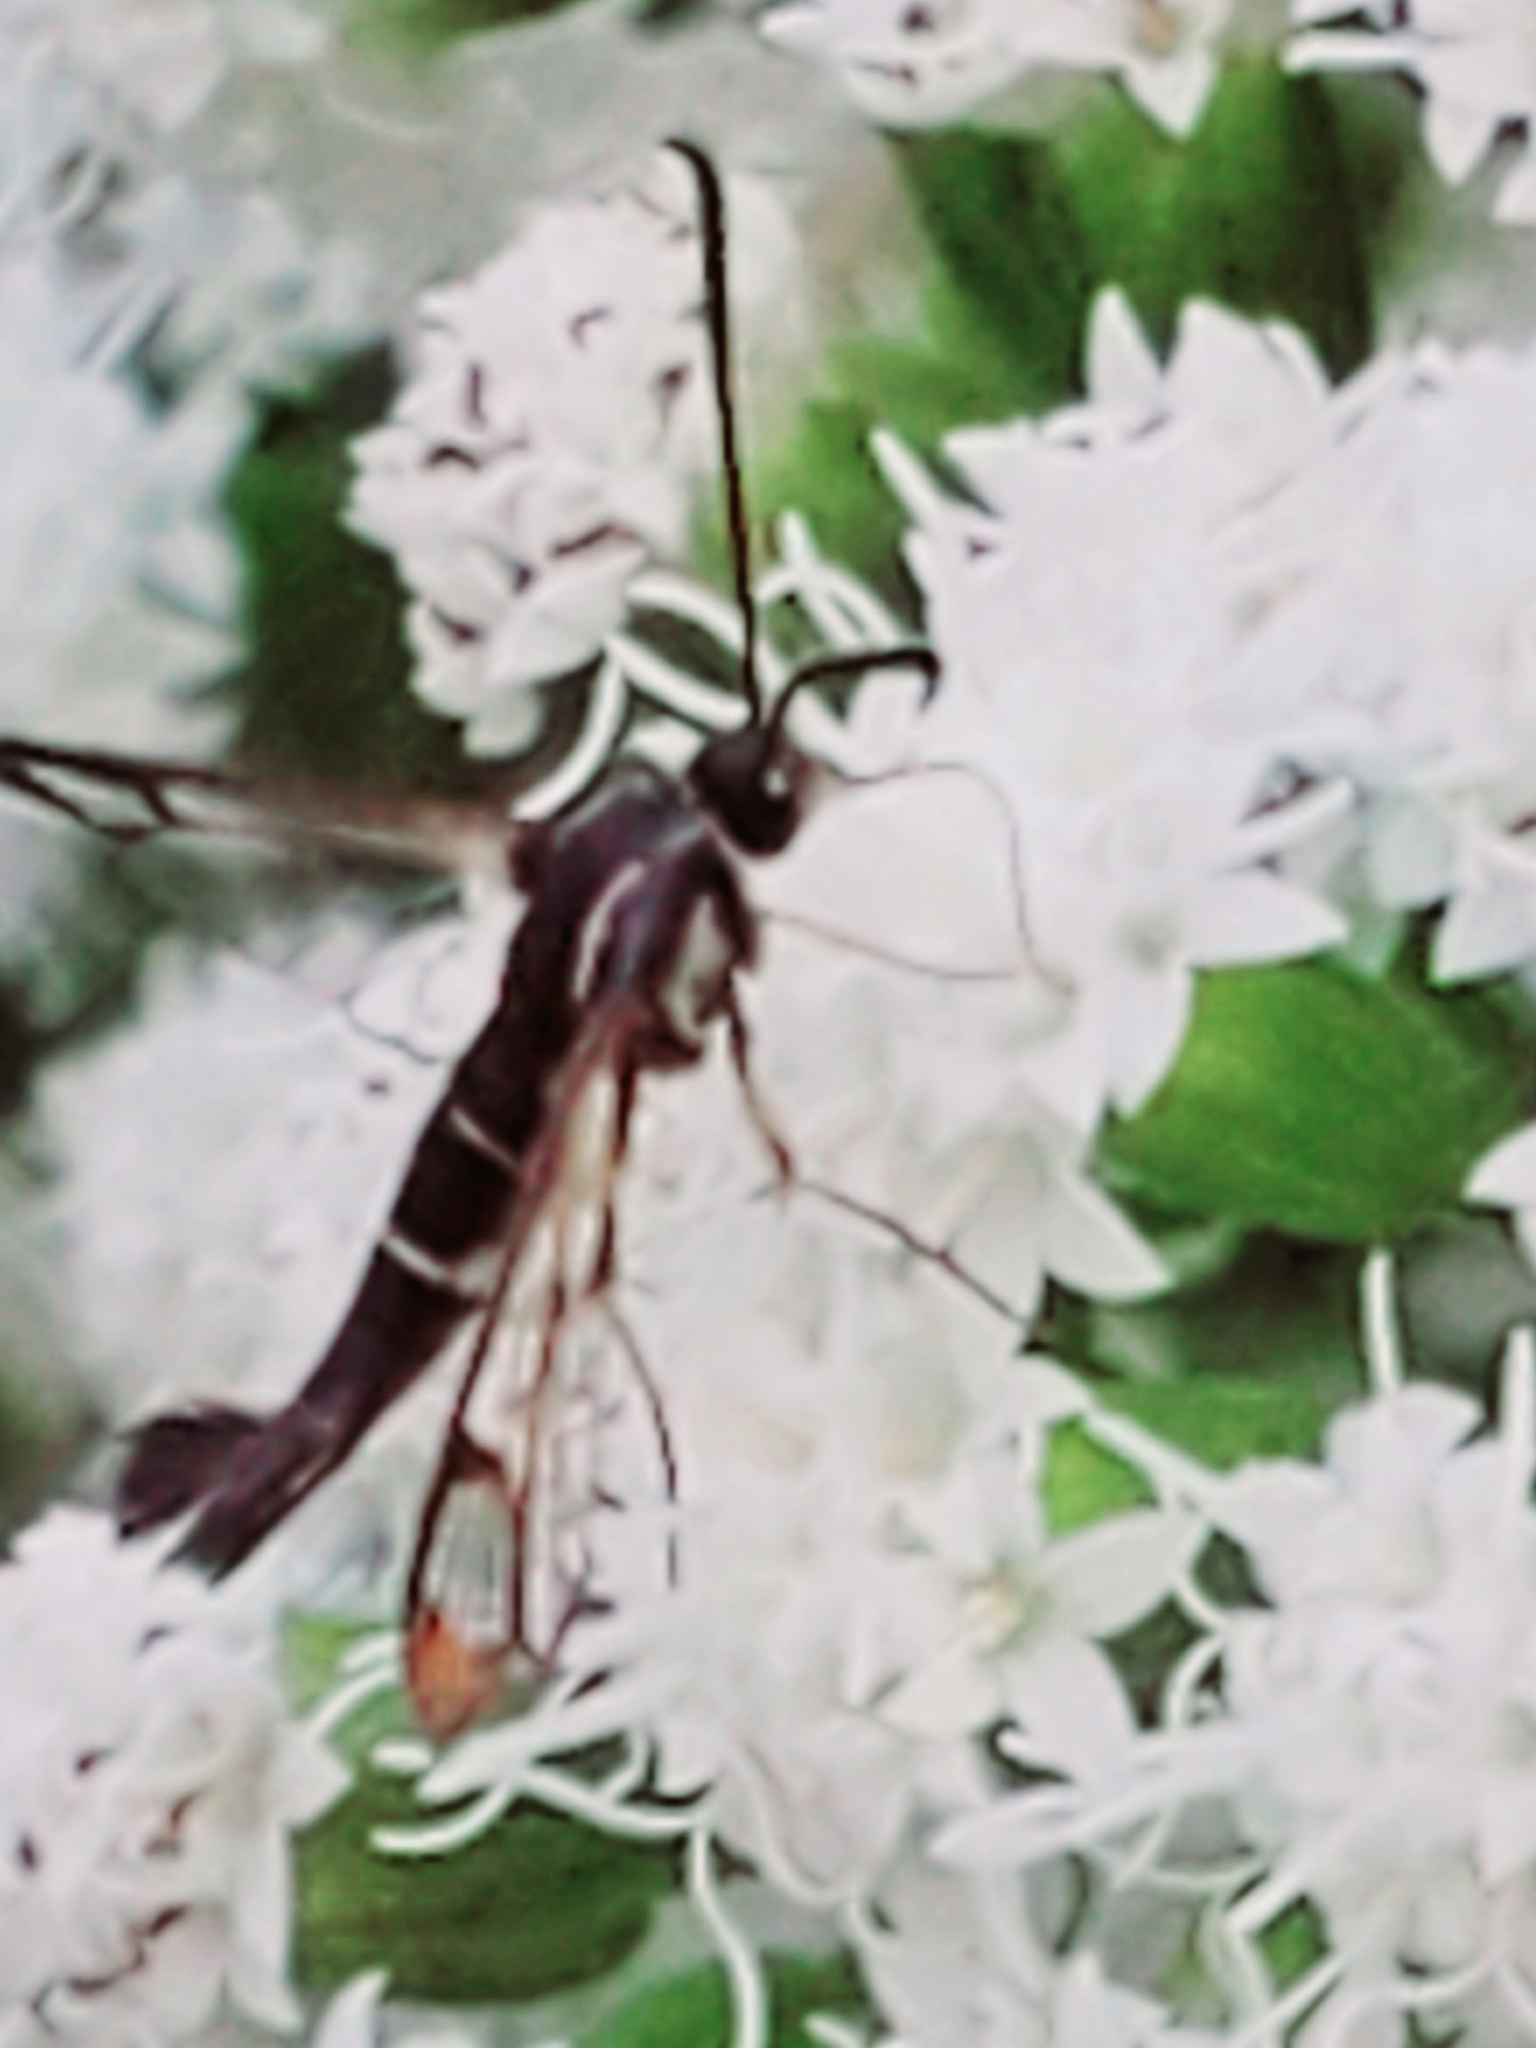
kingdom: Animalia
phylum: Arthropoda
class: Insecta
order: Lepidoptera
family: Sesiidae
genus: Synanthedon
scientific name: Synanthedon scitula
